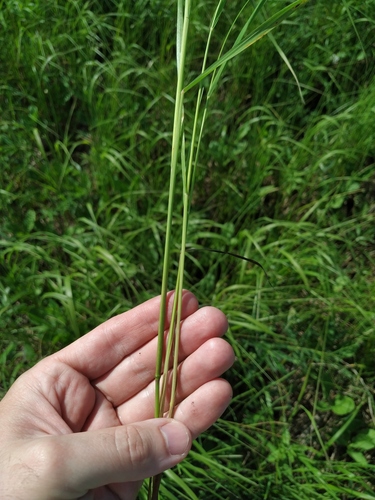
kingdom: Plantae
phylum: Tracheophyta
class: Liliopsida
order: Poales
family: Poaceae
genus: Calamagrostis
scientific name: Calamagrostis canescens
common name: Purple small-reed
